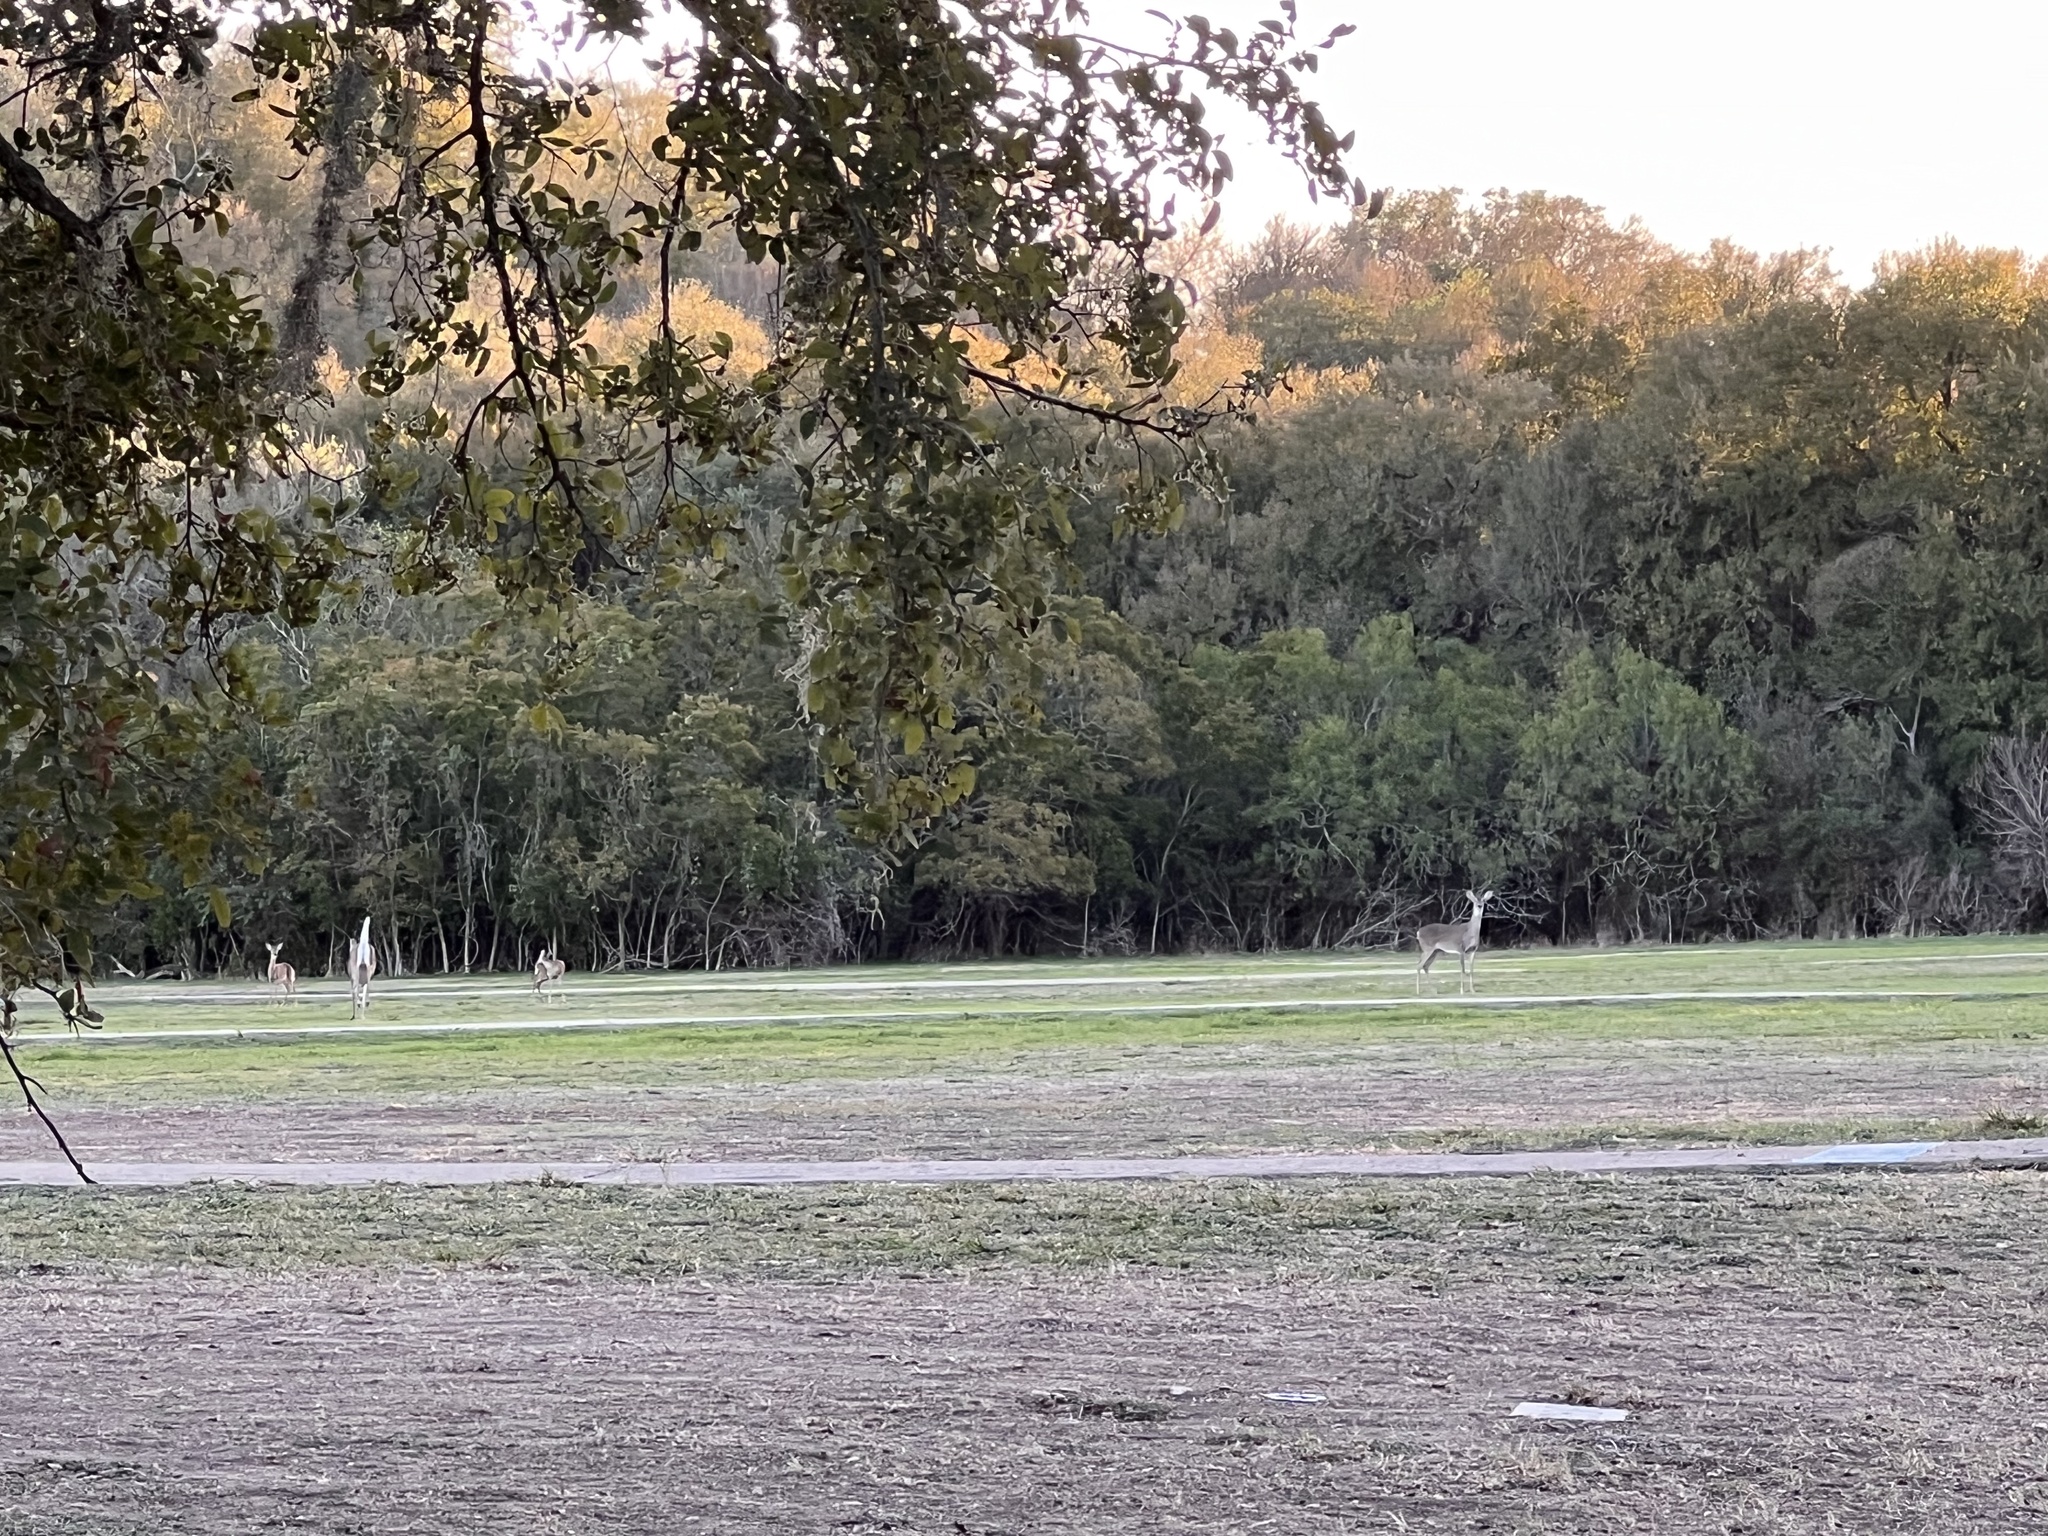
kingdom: Animalia
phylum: Chordata
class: Mammalia
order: Artiodactyla
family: Cervidae
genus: Odocoileus
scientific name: Odocoileus virginianus
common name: White-tailed deer
